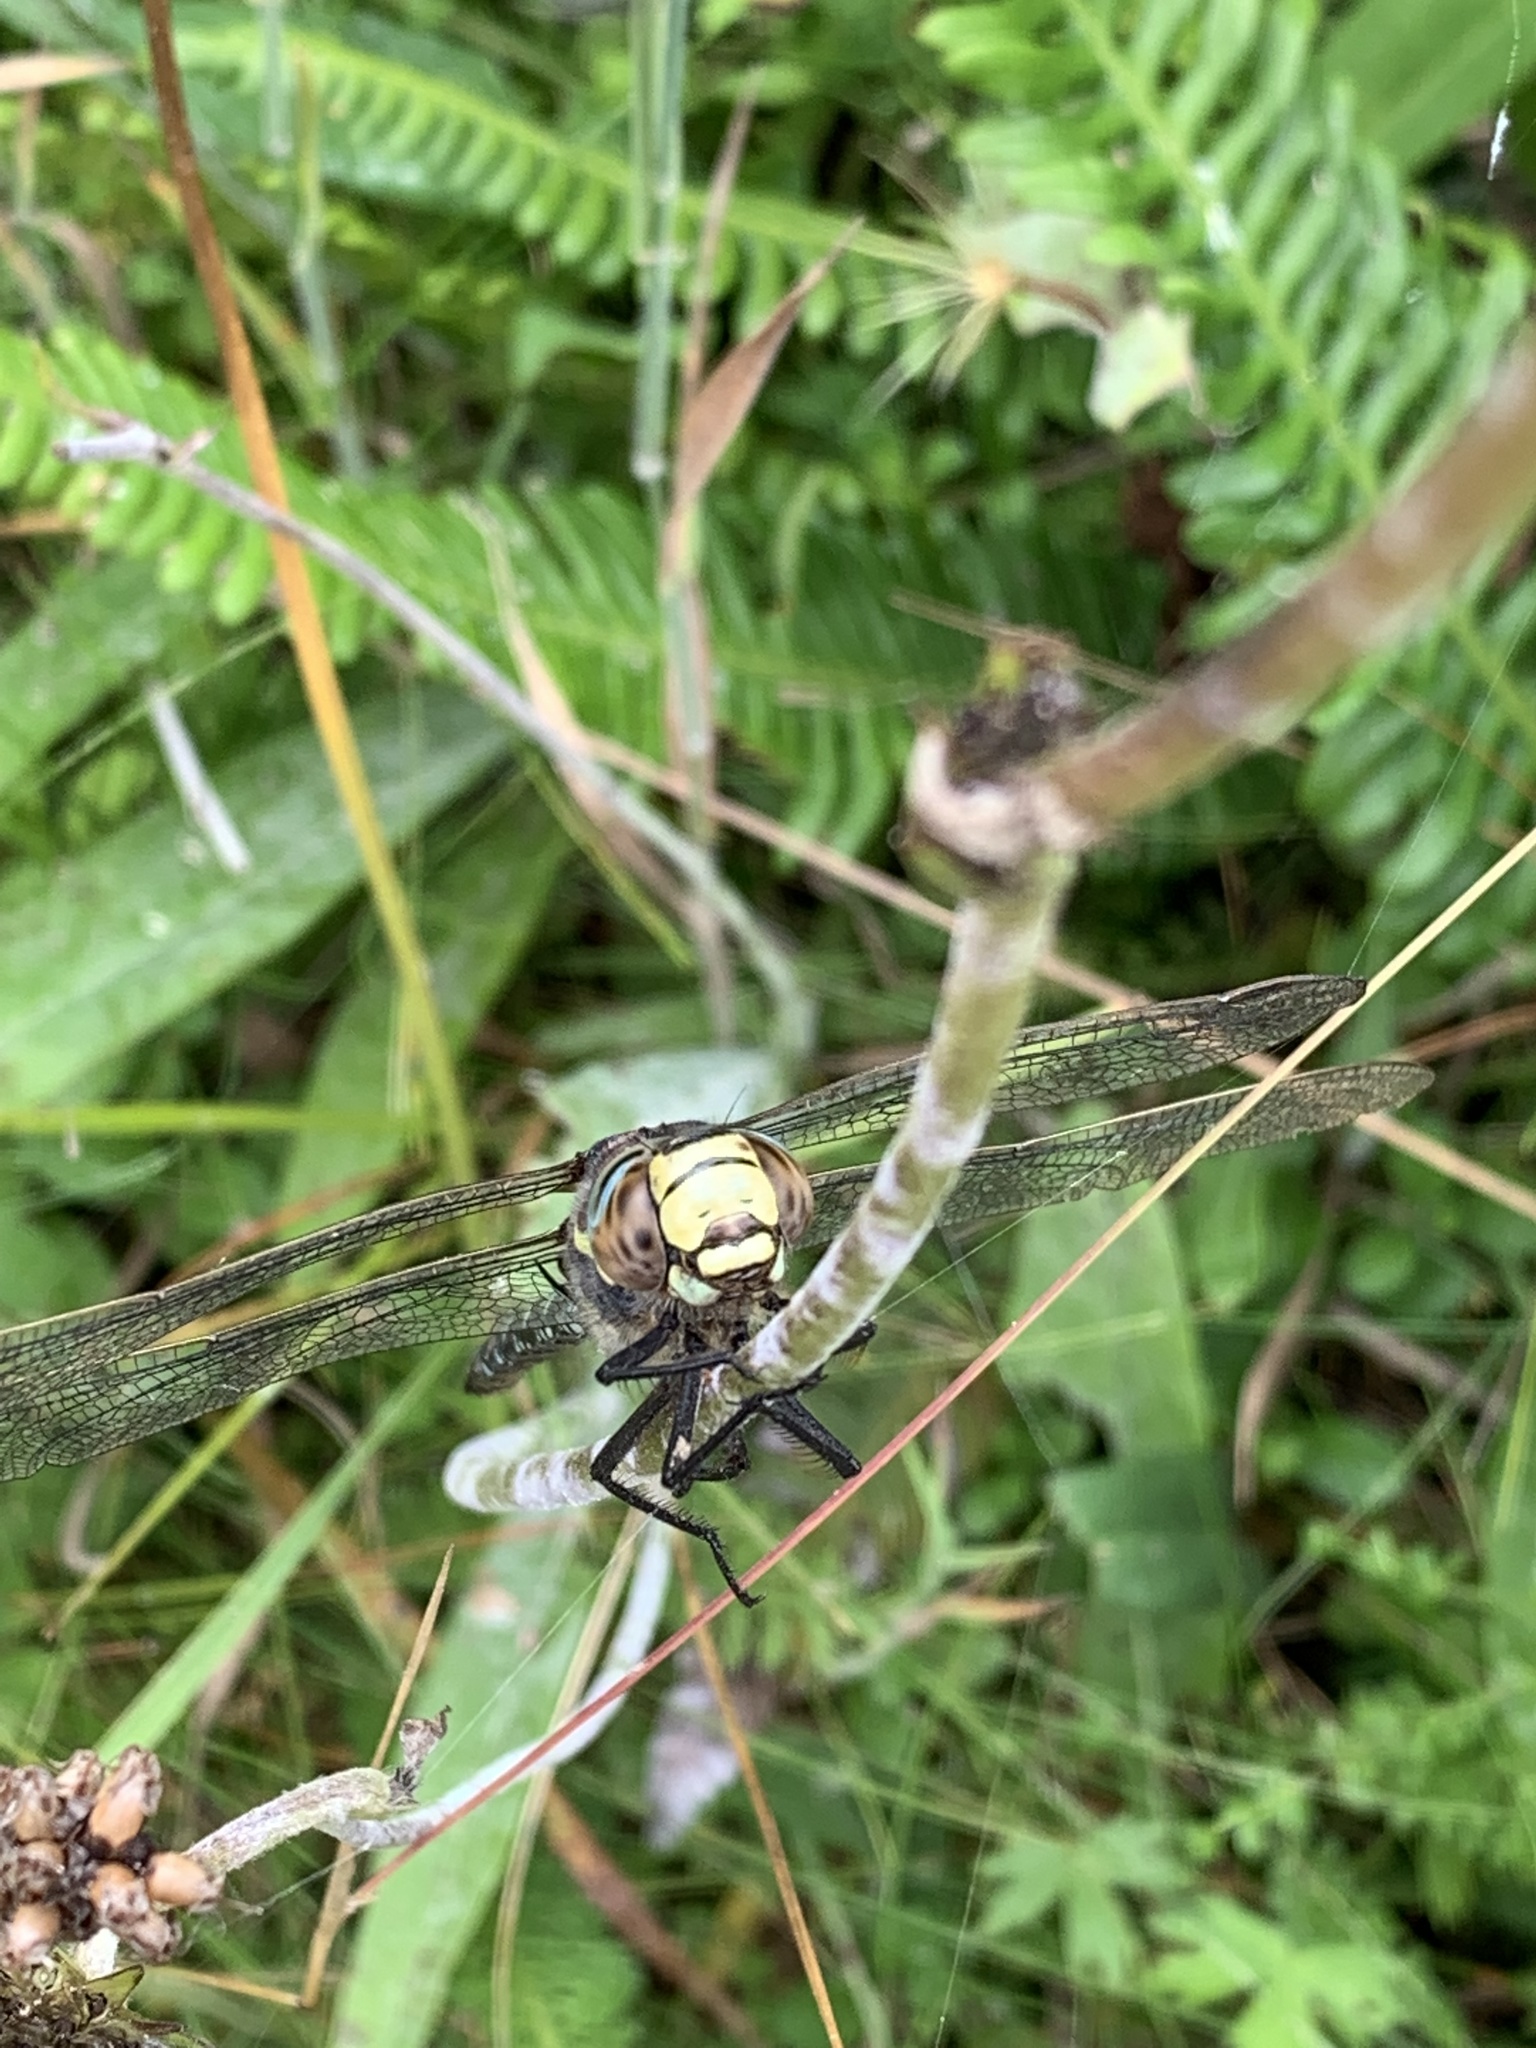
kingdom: Animalia
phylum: Arthropoda
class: Insecta
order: Odonata
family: Aeshnidae
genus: Aeshna
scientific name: Aeshna juncea
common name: Moorland hawker
